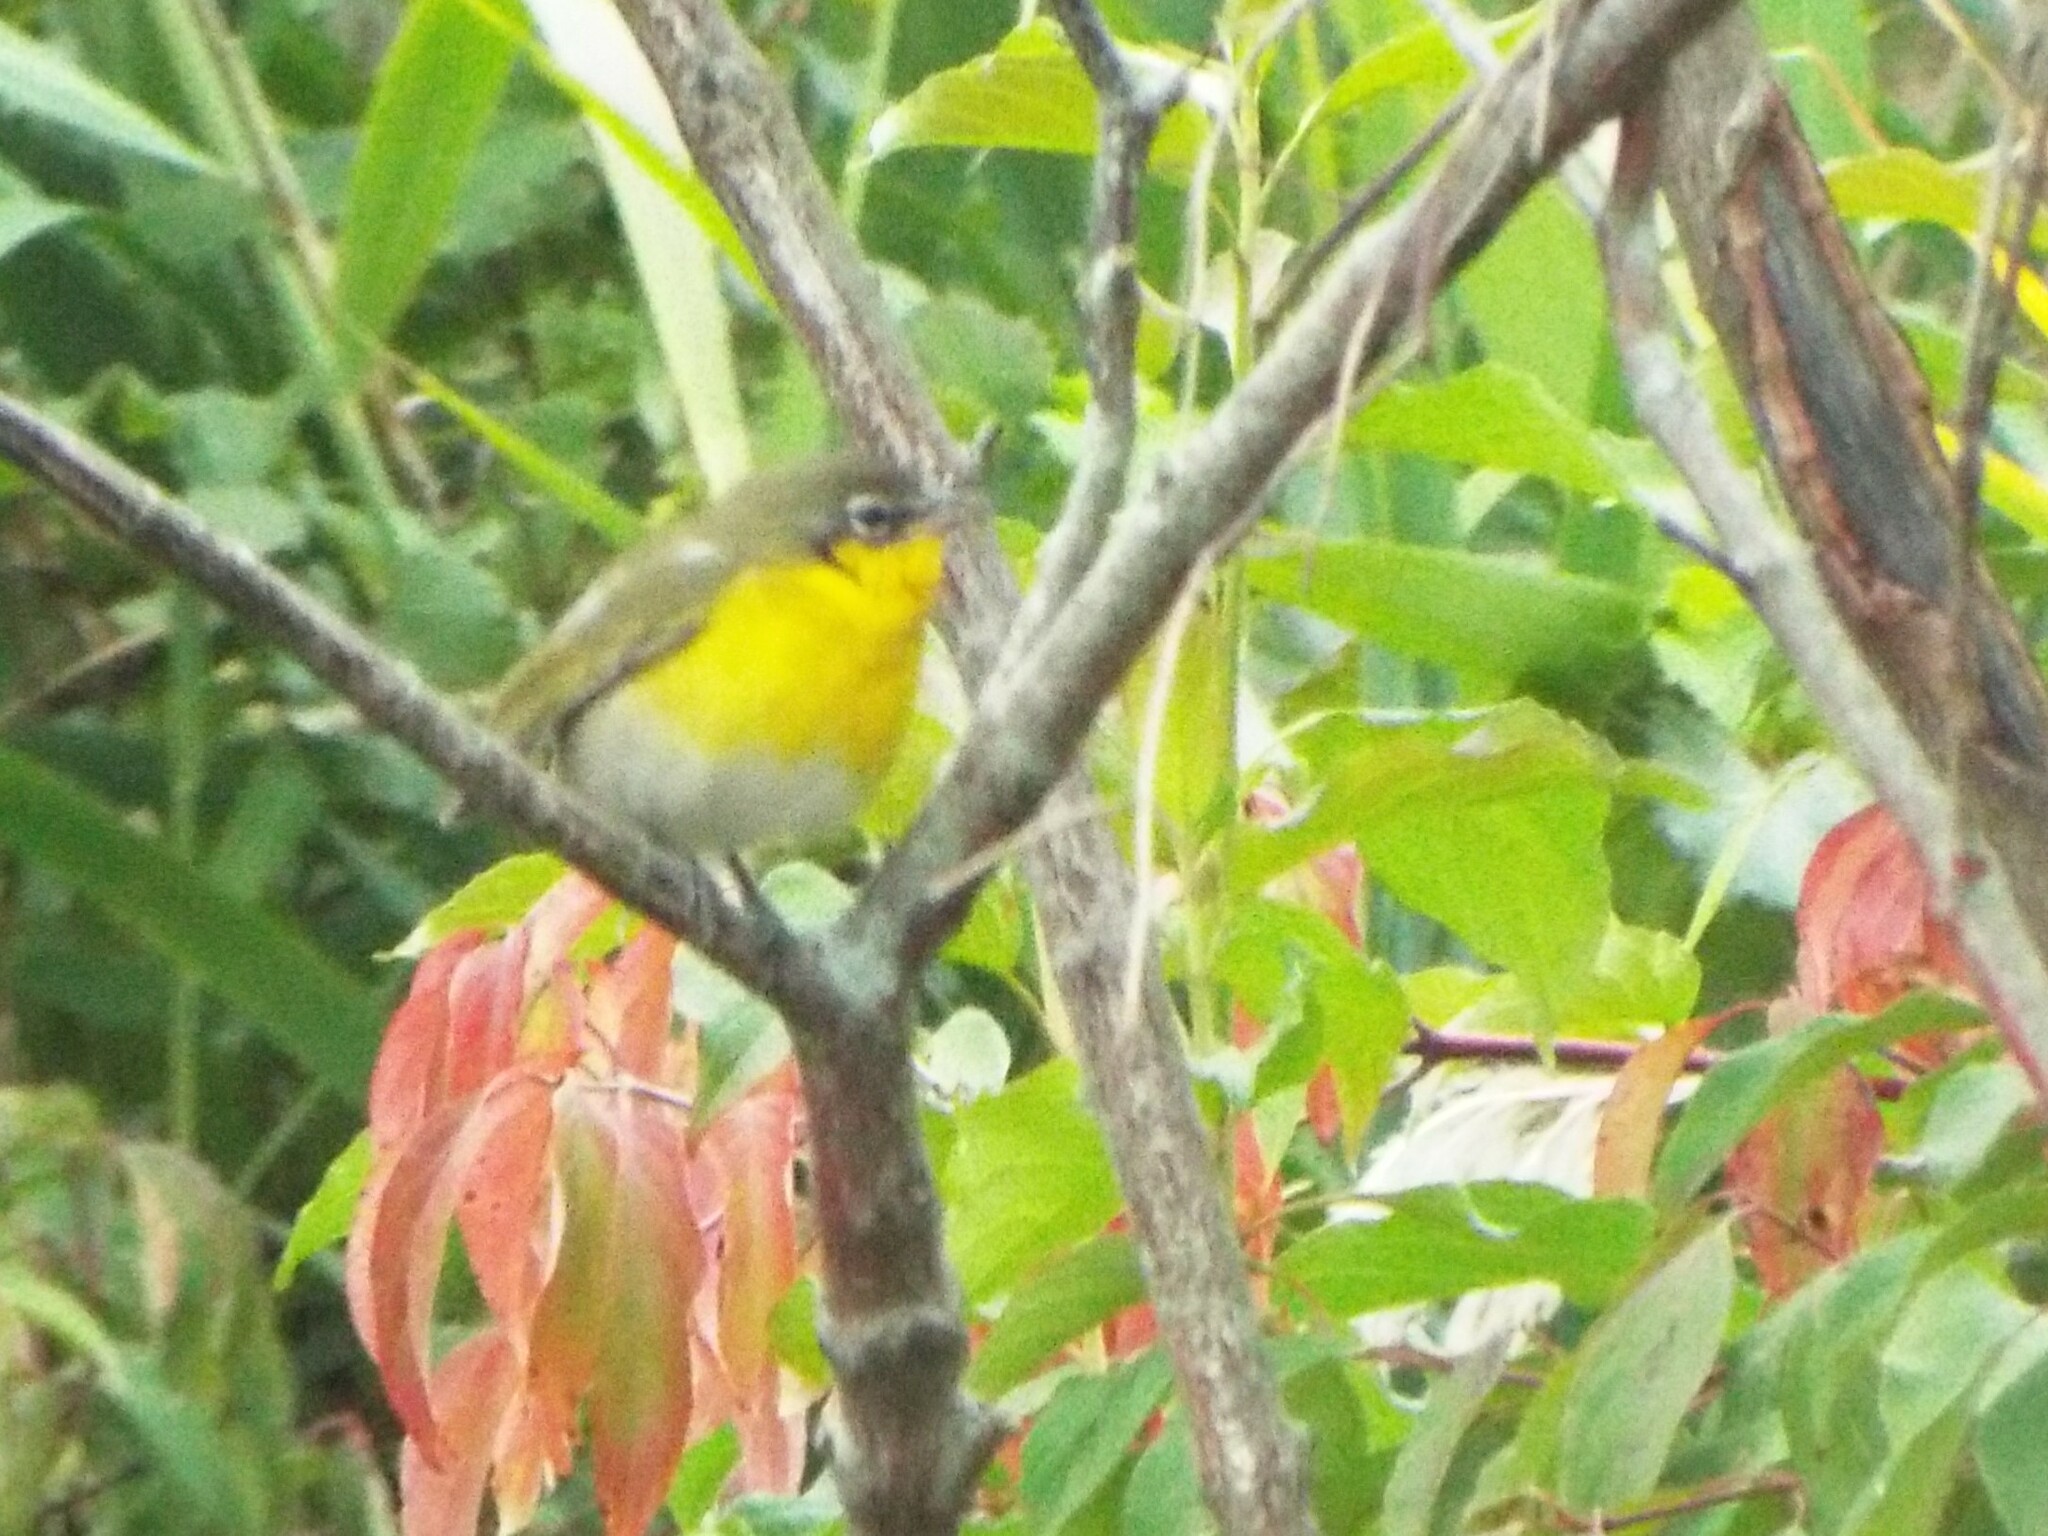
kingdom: Animalia
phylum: Chordata
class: Aves
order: Passeriformes
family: Parulidae
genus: Icteria
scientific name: Icteria virens
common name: Yellow-breasted chat
